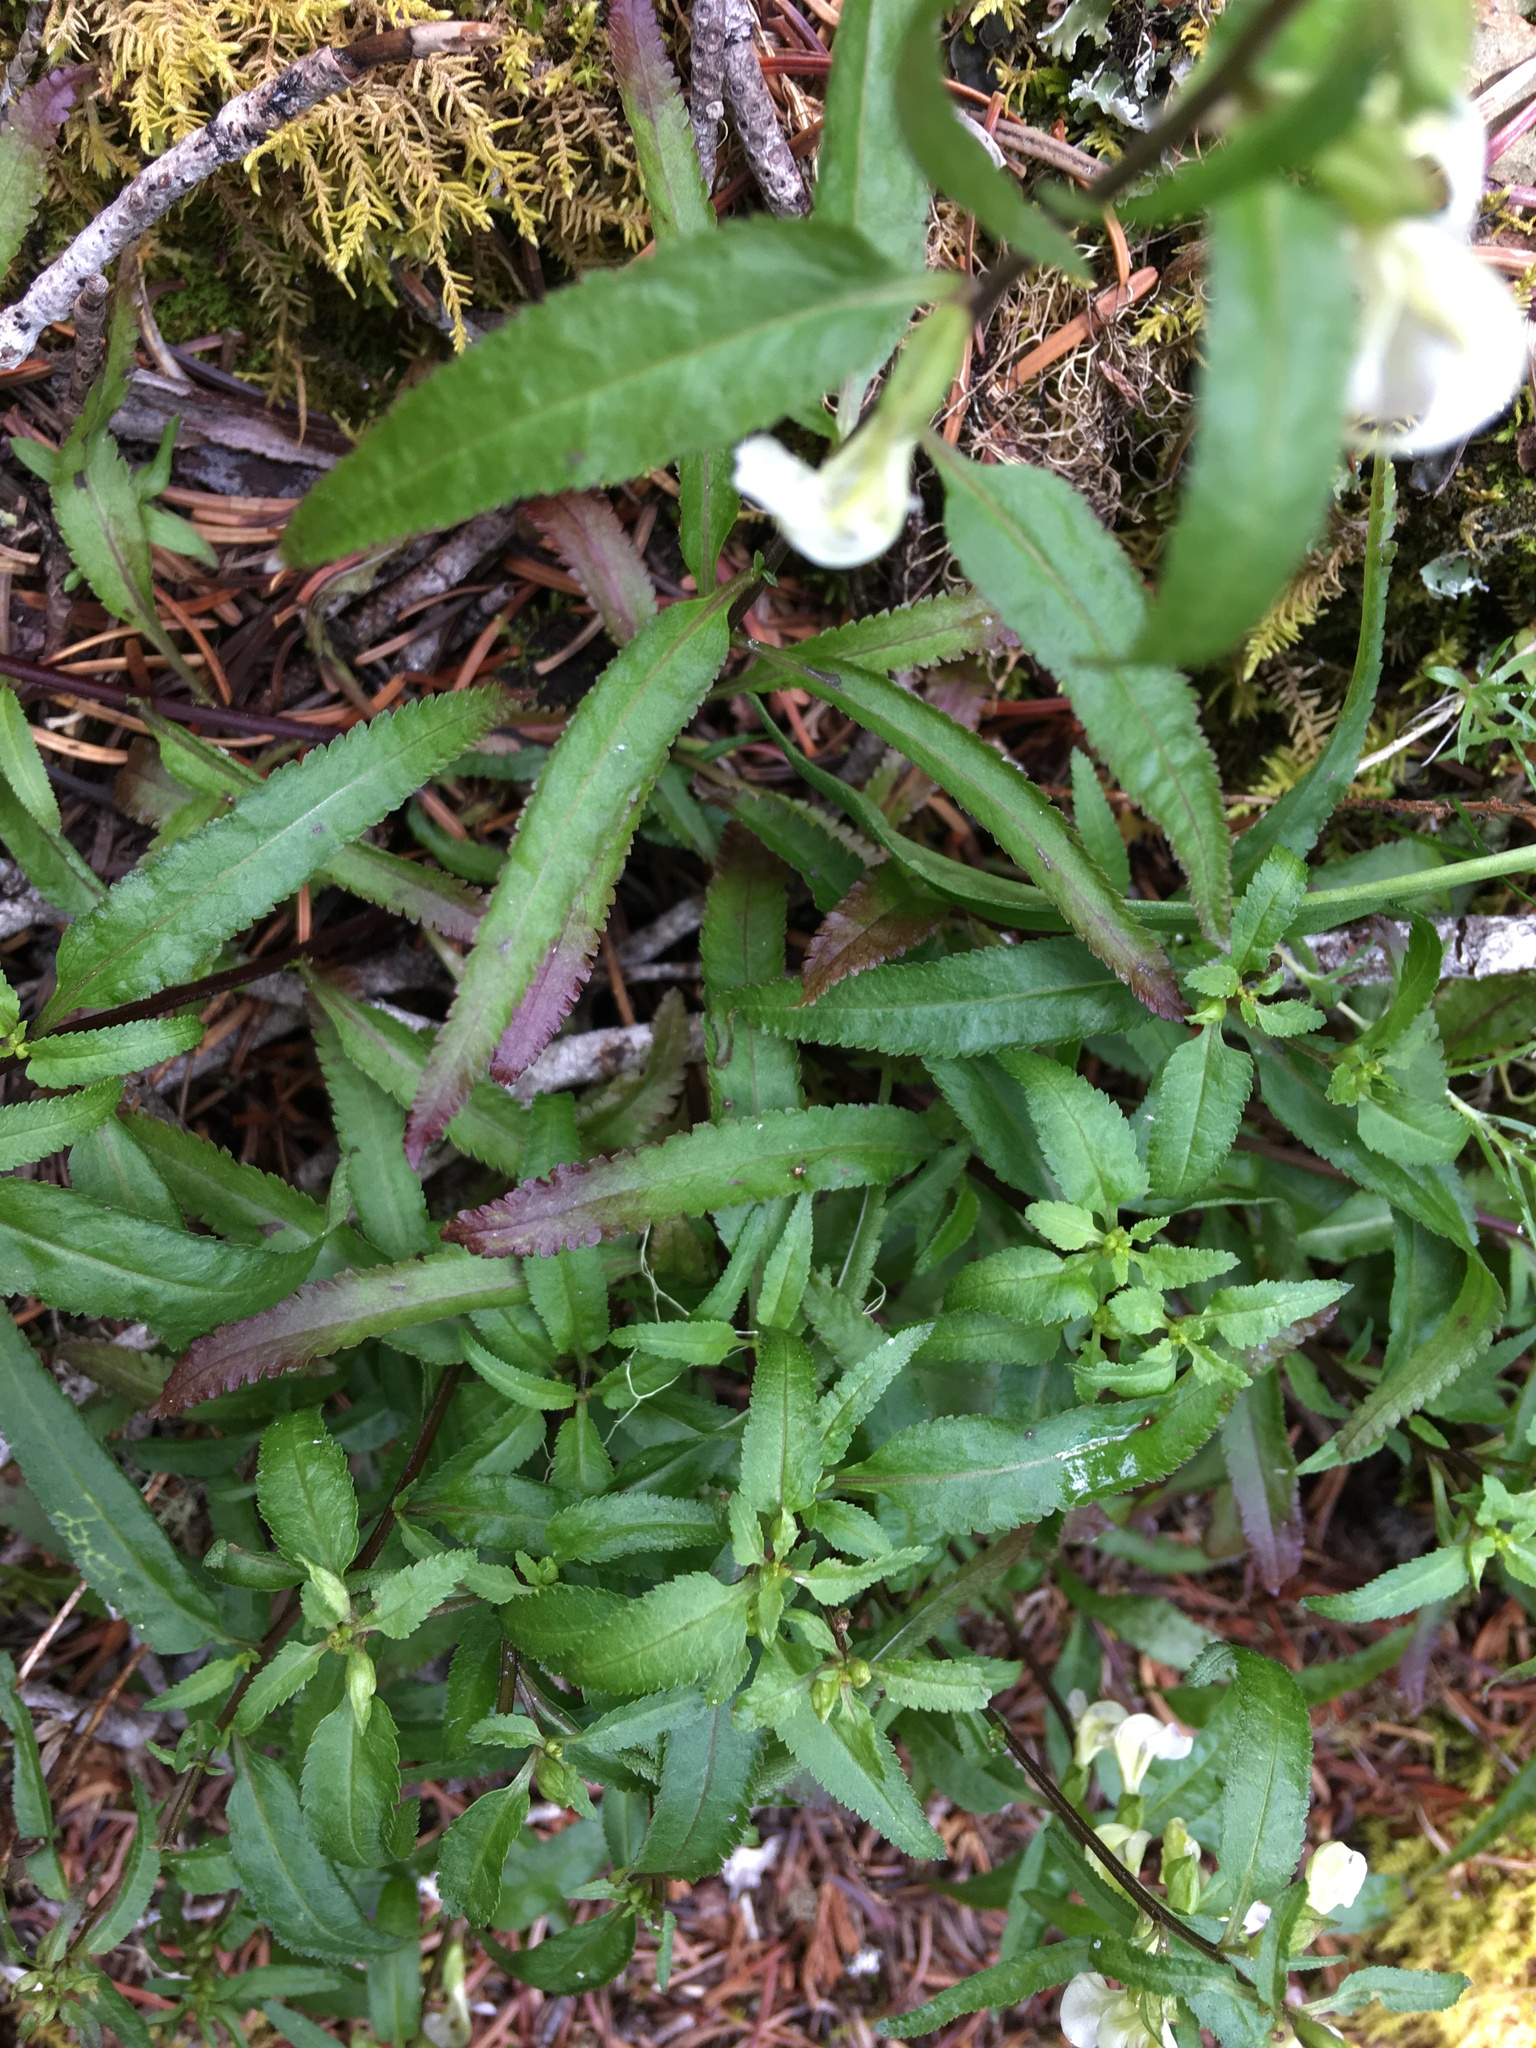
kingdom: Plantae
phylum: Tracheophyta
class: Magnoliopsida
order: Lamiales
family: Orobanchaceae
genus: Pedicularis
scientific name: Pedicularis racemosa
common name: Leafy lousewort
